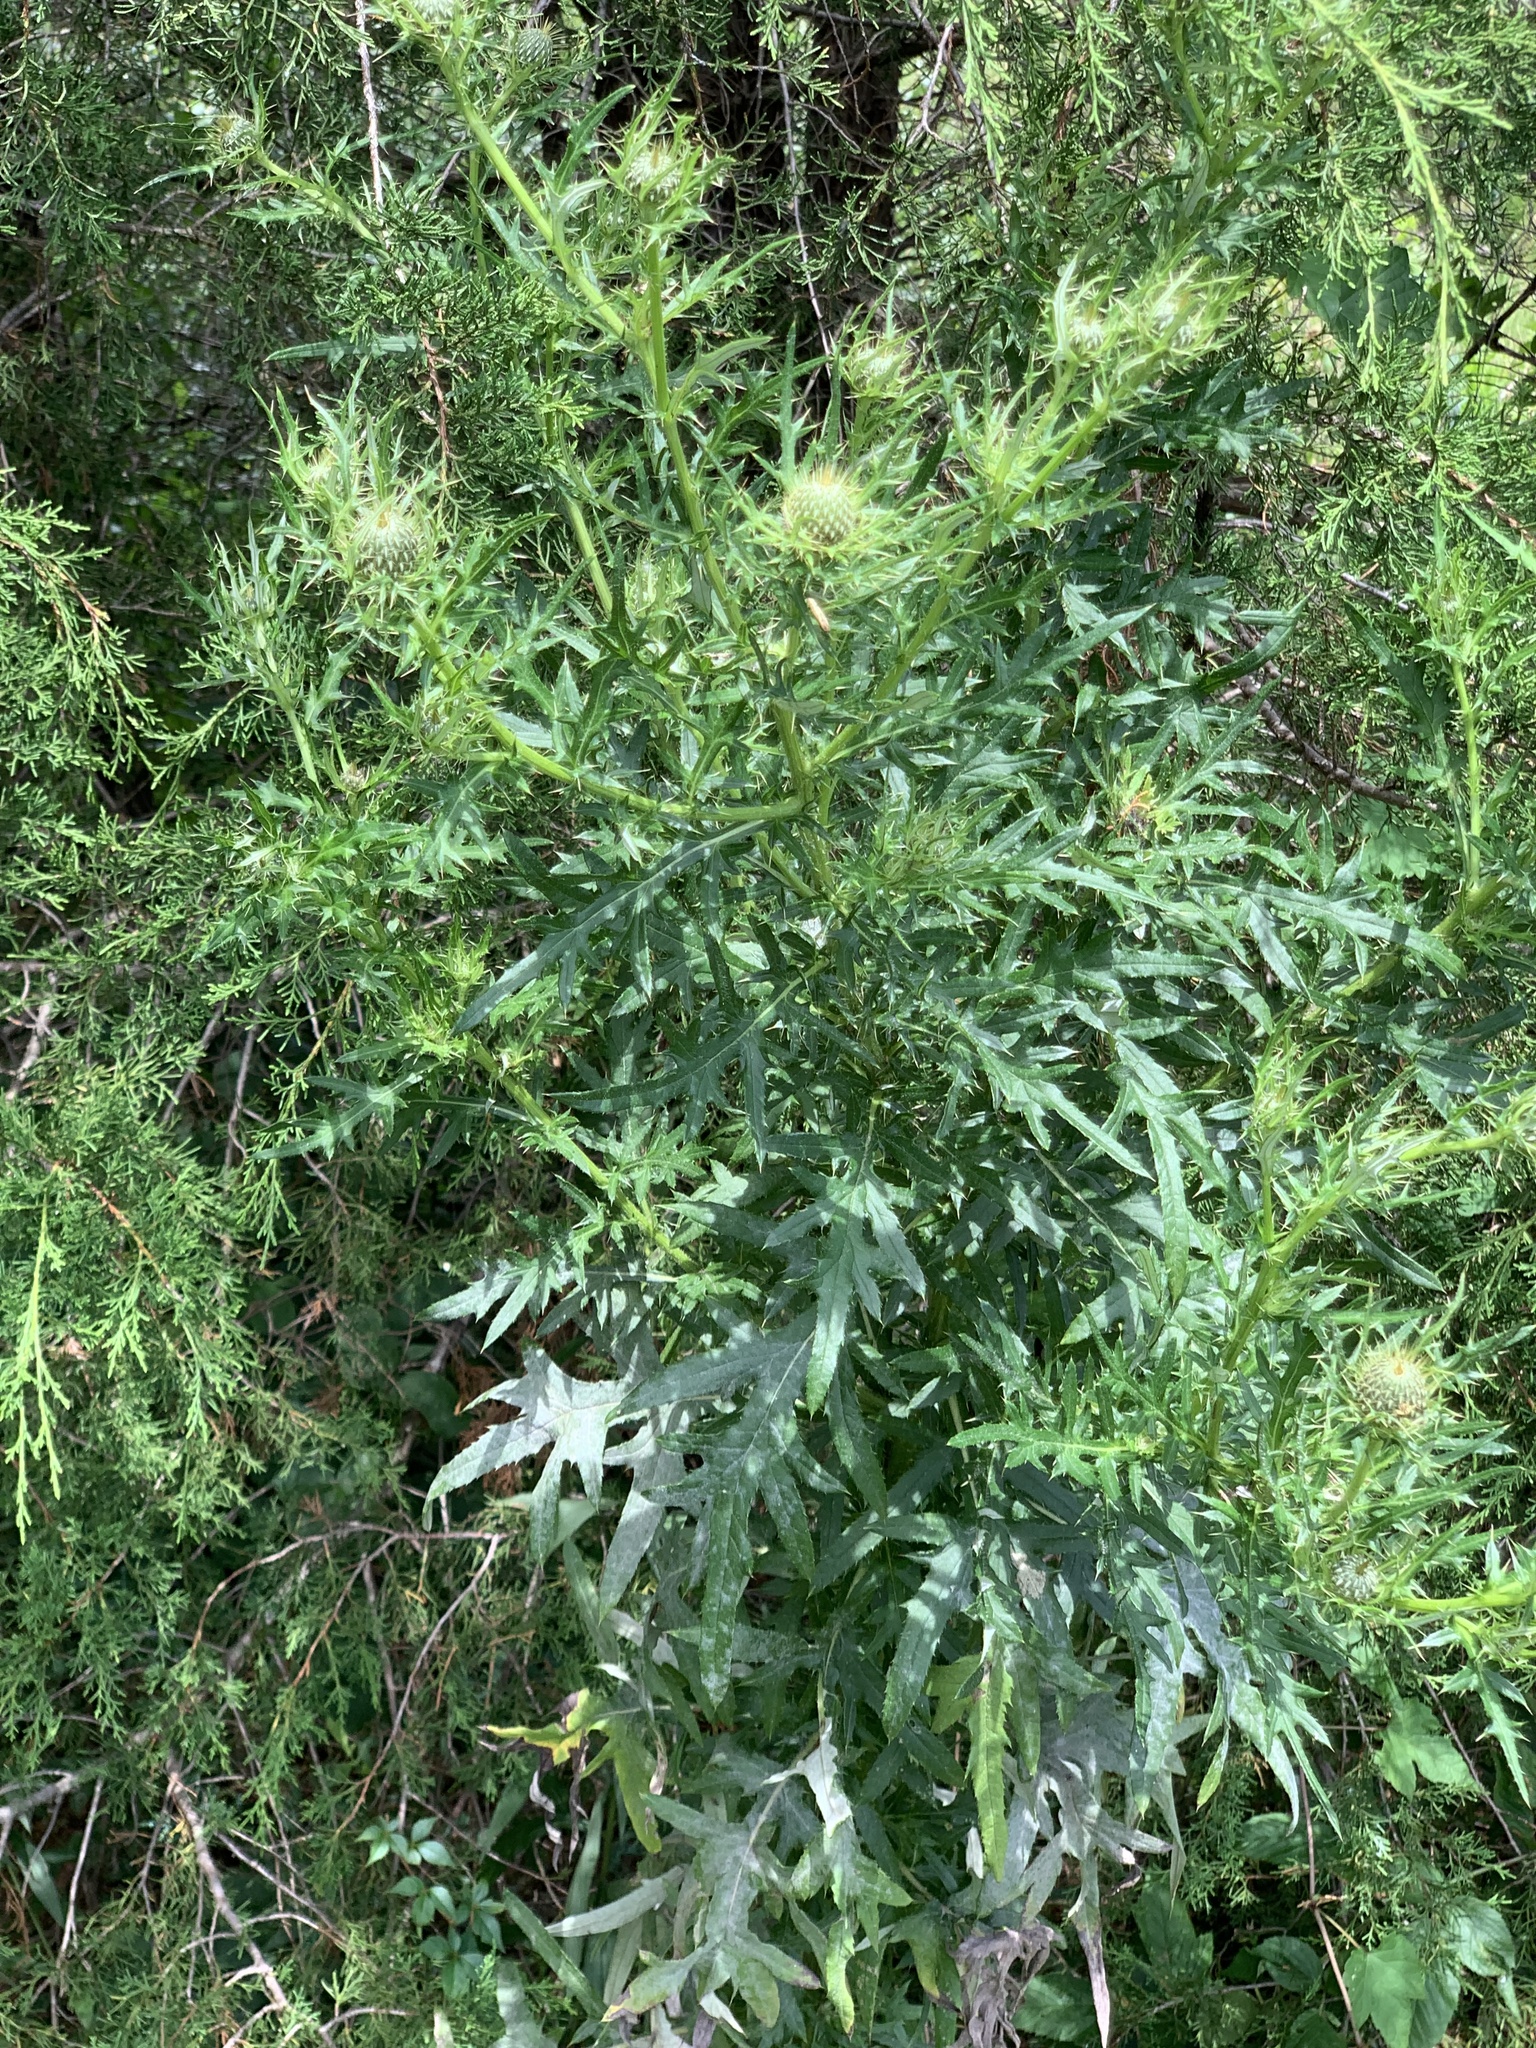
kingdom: Plantae
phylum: Tracheophyta
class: Magnoliopsida
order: Asterales
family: Asteraceae
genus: Cirsium
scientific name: Cirsium discolor
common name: Field thistle
